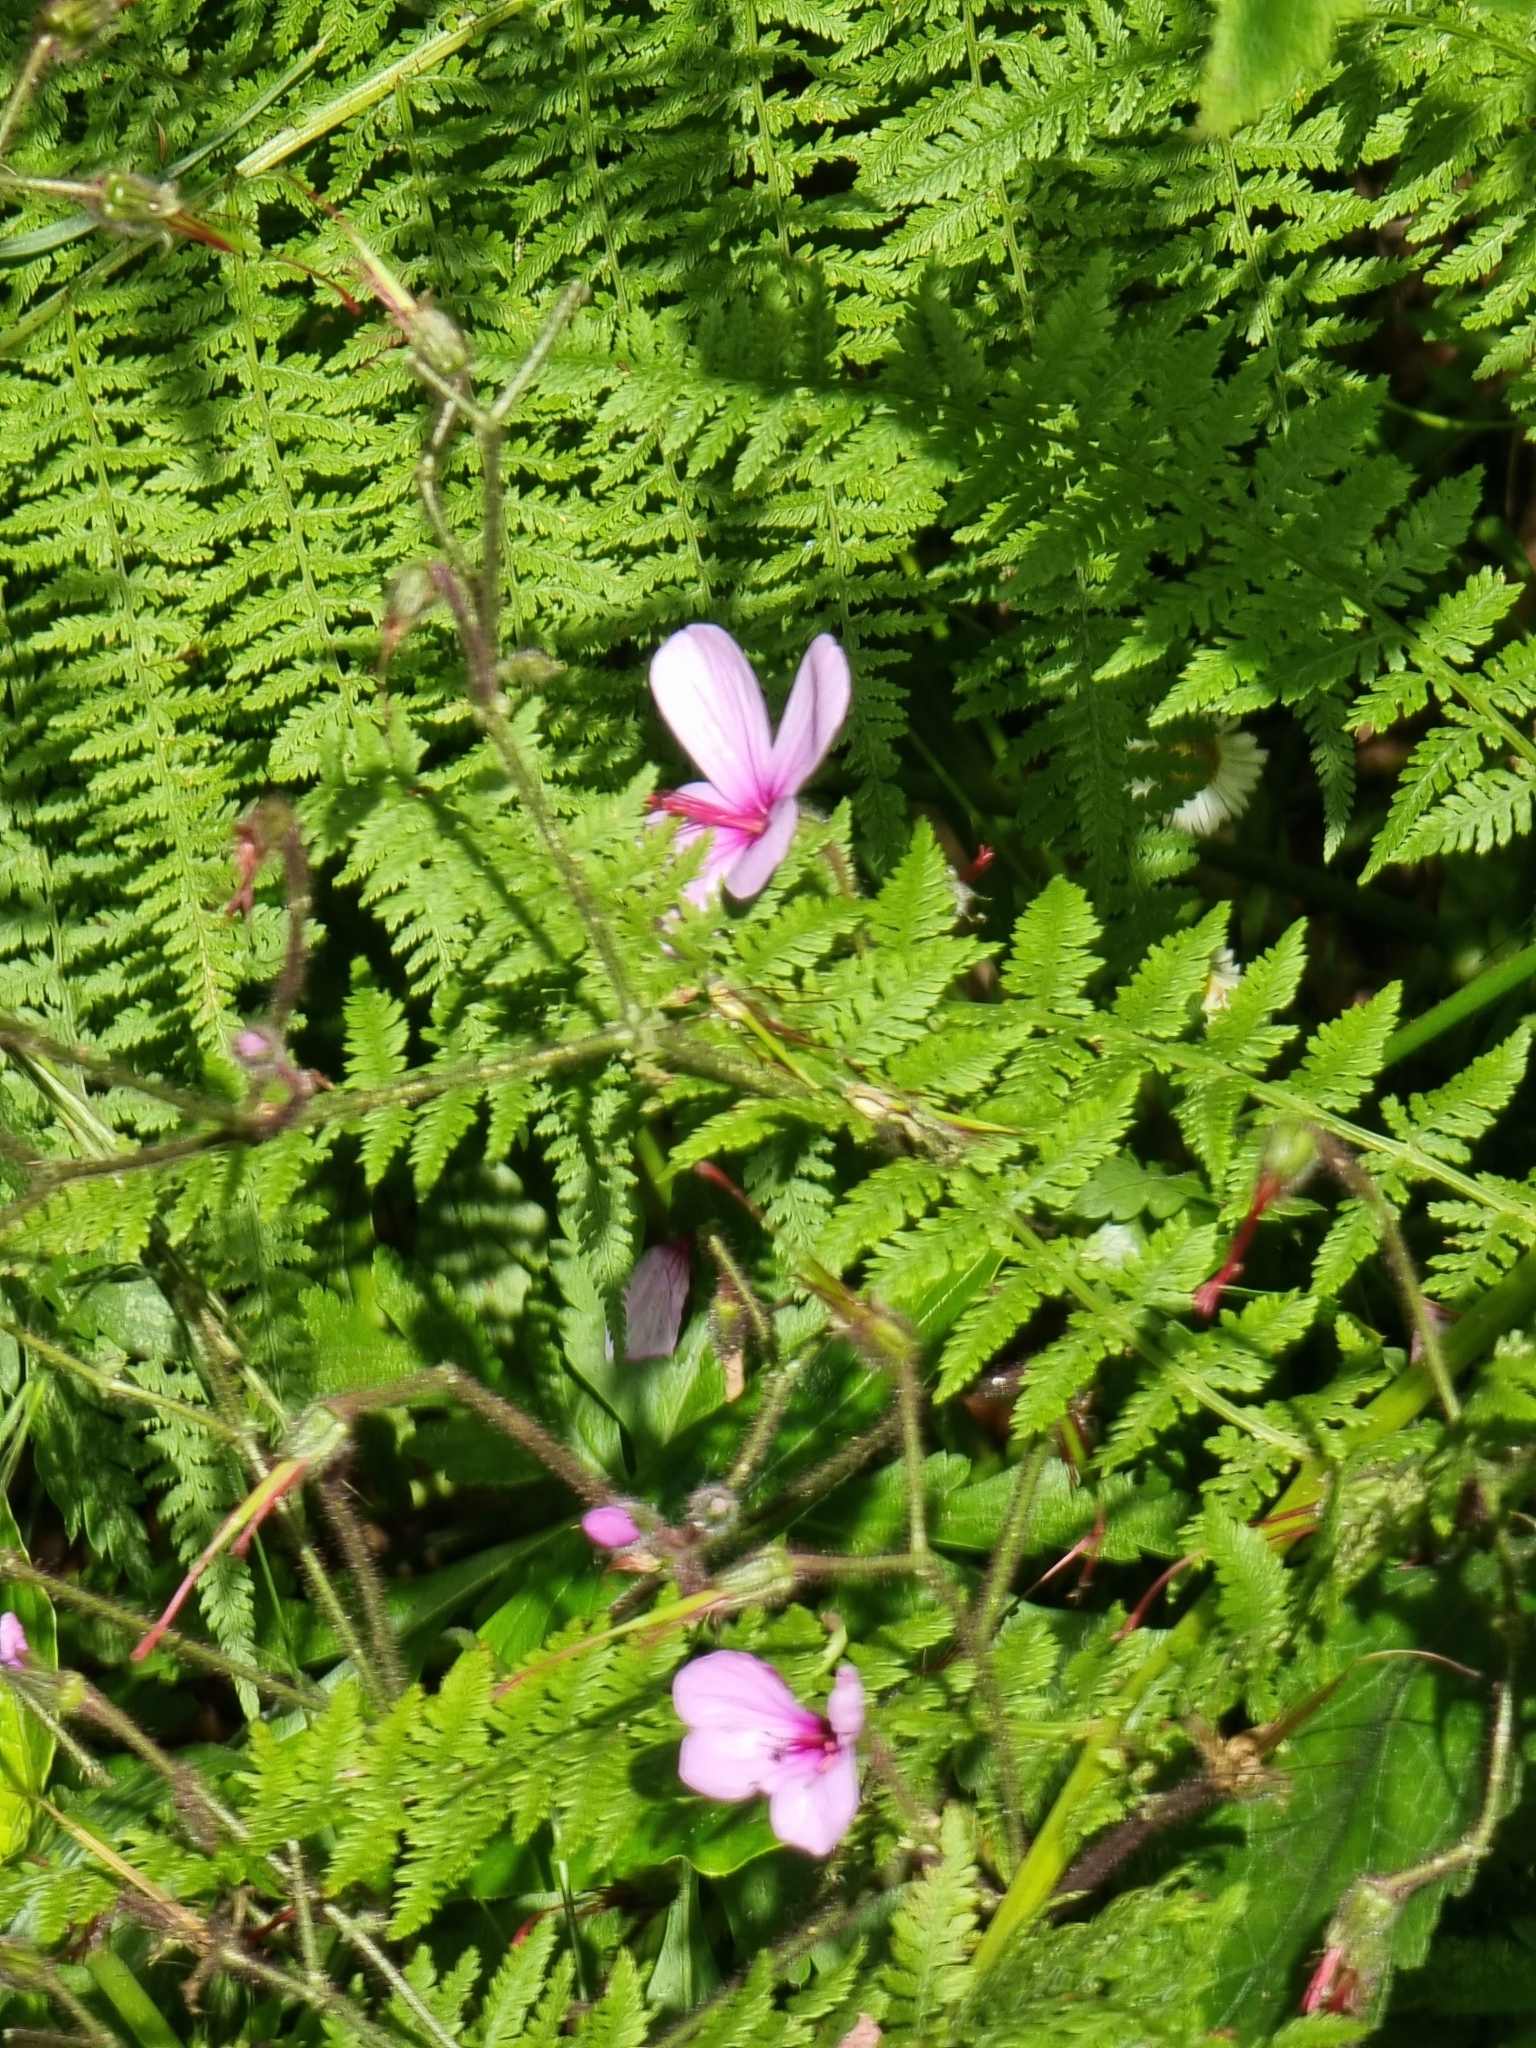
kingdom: Plantae
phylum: Tracheophyta
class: Magnoliopsida
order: Geraniales
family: Geraniaceae
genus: Geranium
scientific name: Geranium palmatum
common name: Canary island geranium
